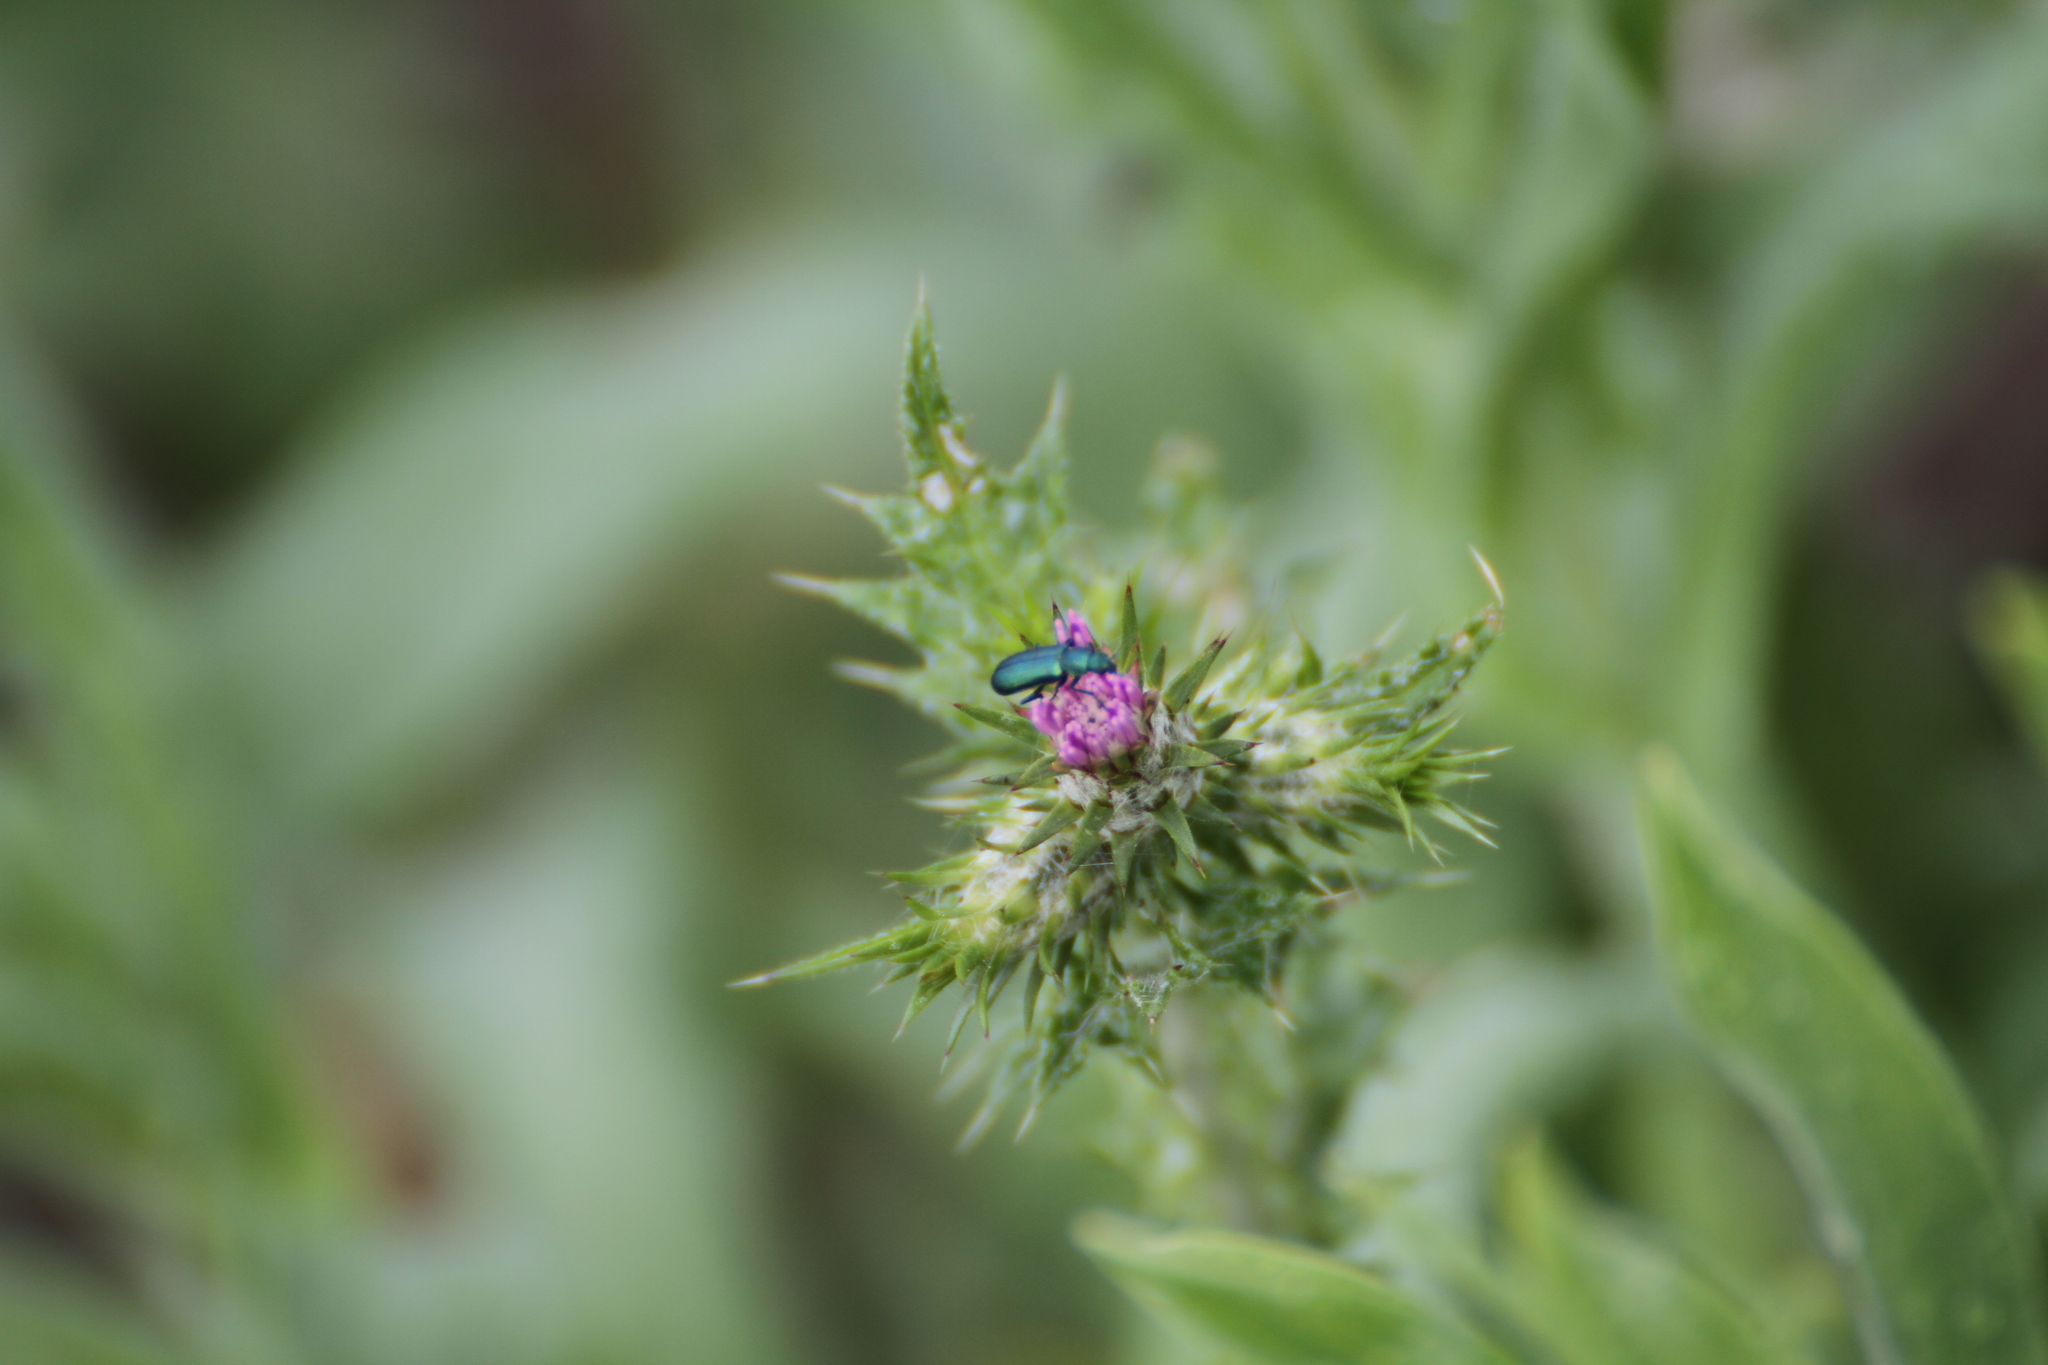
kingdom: Animalia
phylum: Arthropoda
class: Insecta
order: Coleoptera
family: Dasytidae
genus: Psilothrix
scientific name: Psilothrix viridicoerulea
